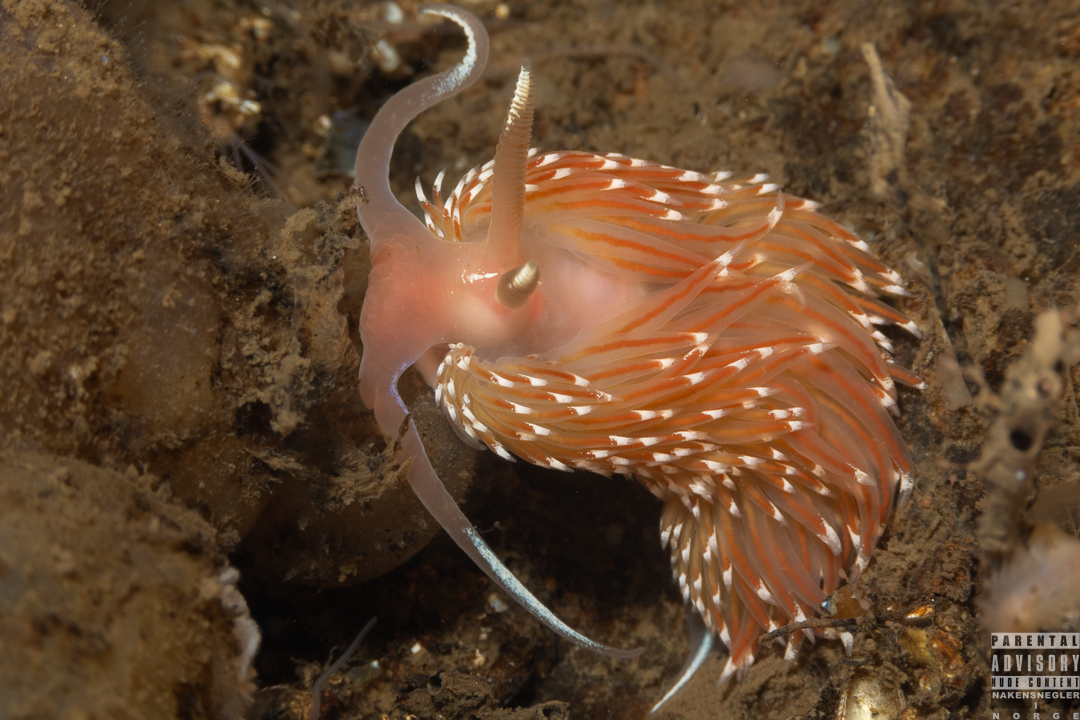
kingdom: Animalia
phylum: Mollusca
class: Gastropoda
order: Nudibranchia
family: Facelinidae
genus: Facelina
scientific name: Facelina bostoniensis
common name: Boston facelina
